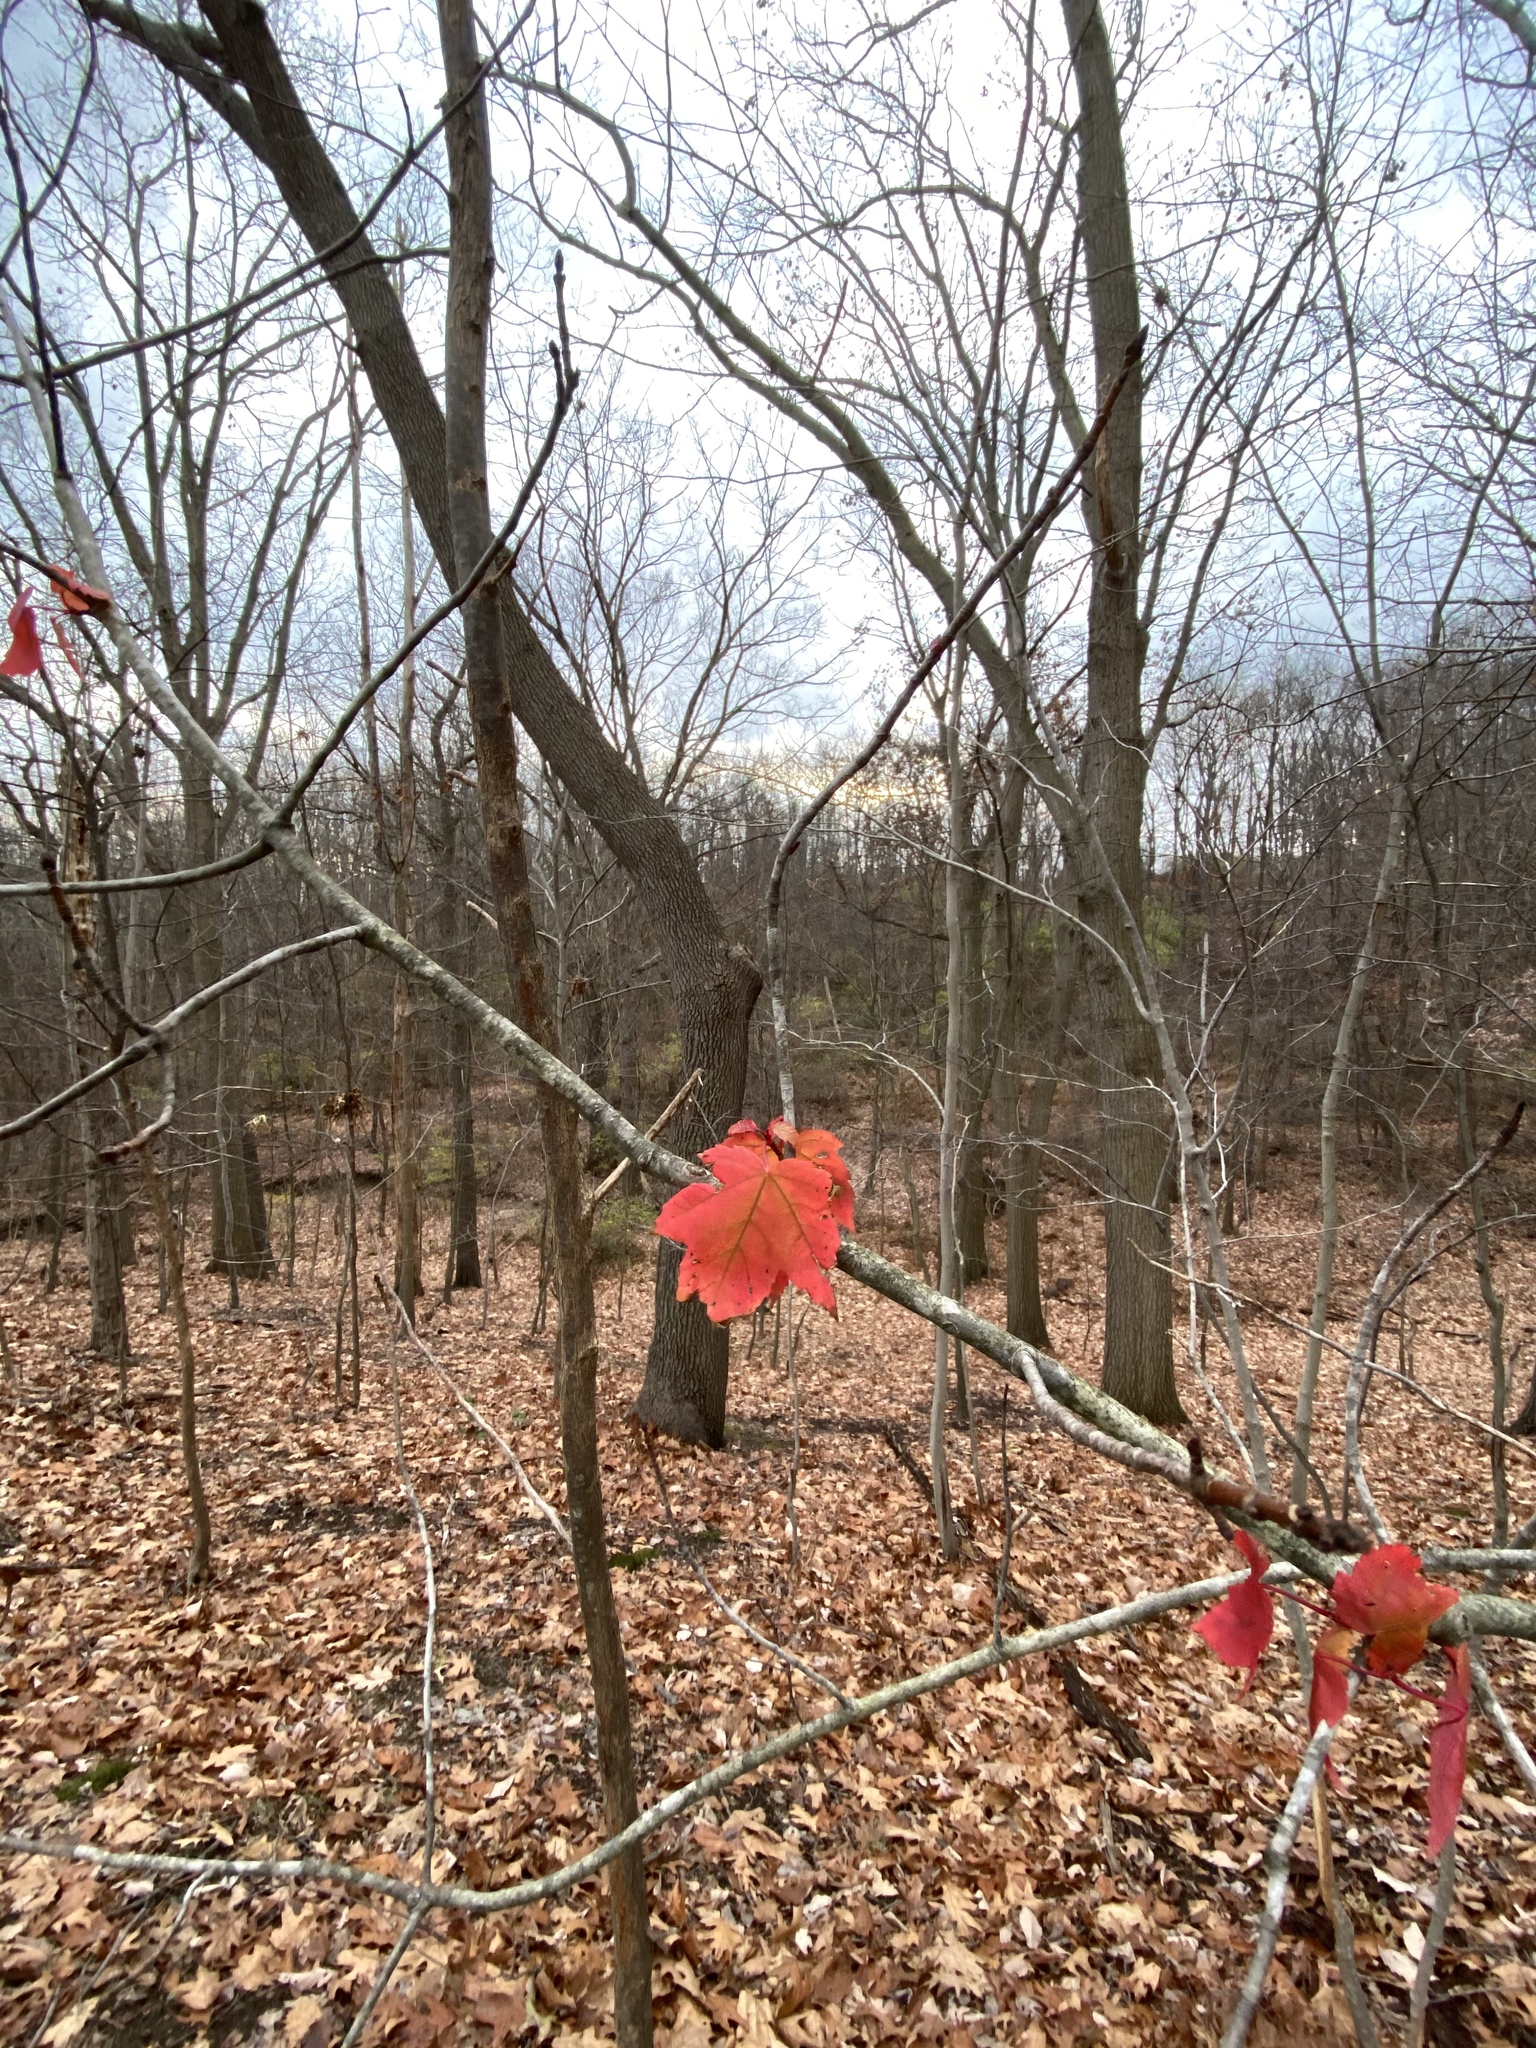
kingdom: Plantae
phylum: Tracheophyta
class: Magnoliopsida
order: Sapindales
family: Sapindaceae
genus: Acer
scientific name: Acer rubrum
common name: Red maple
